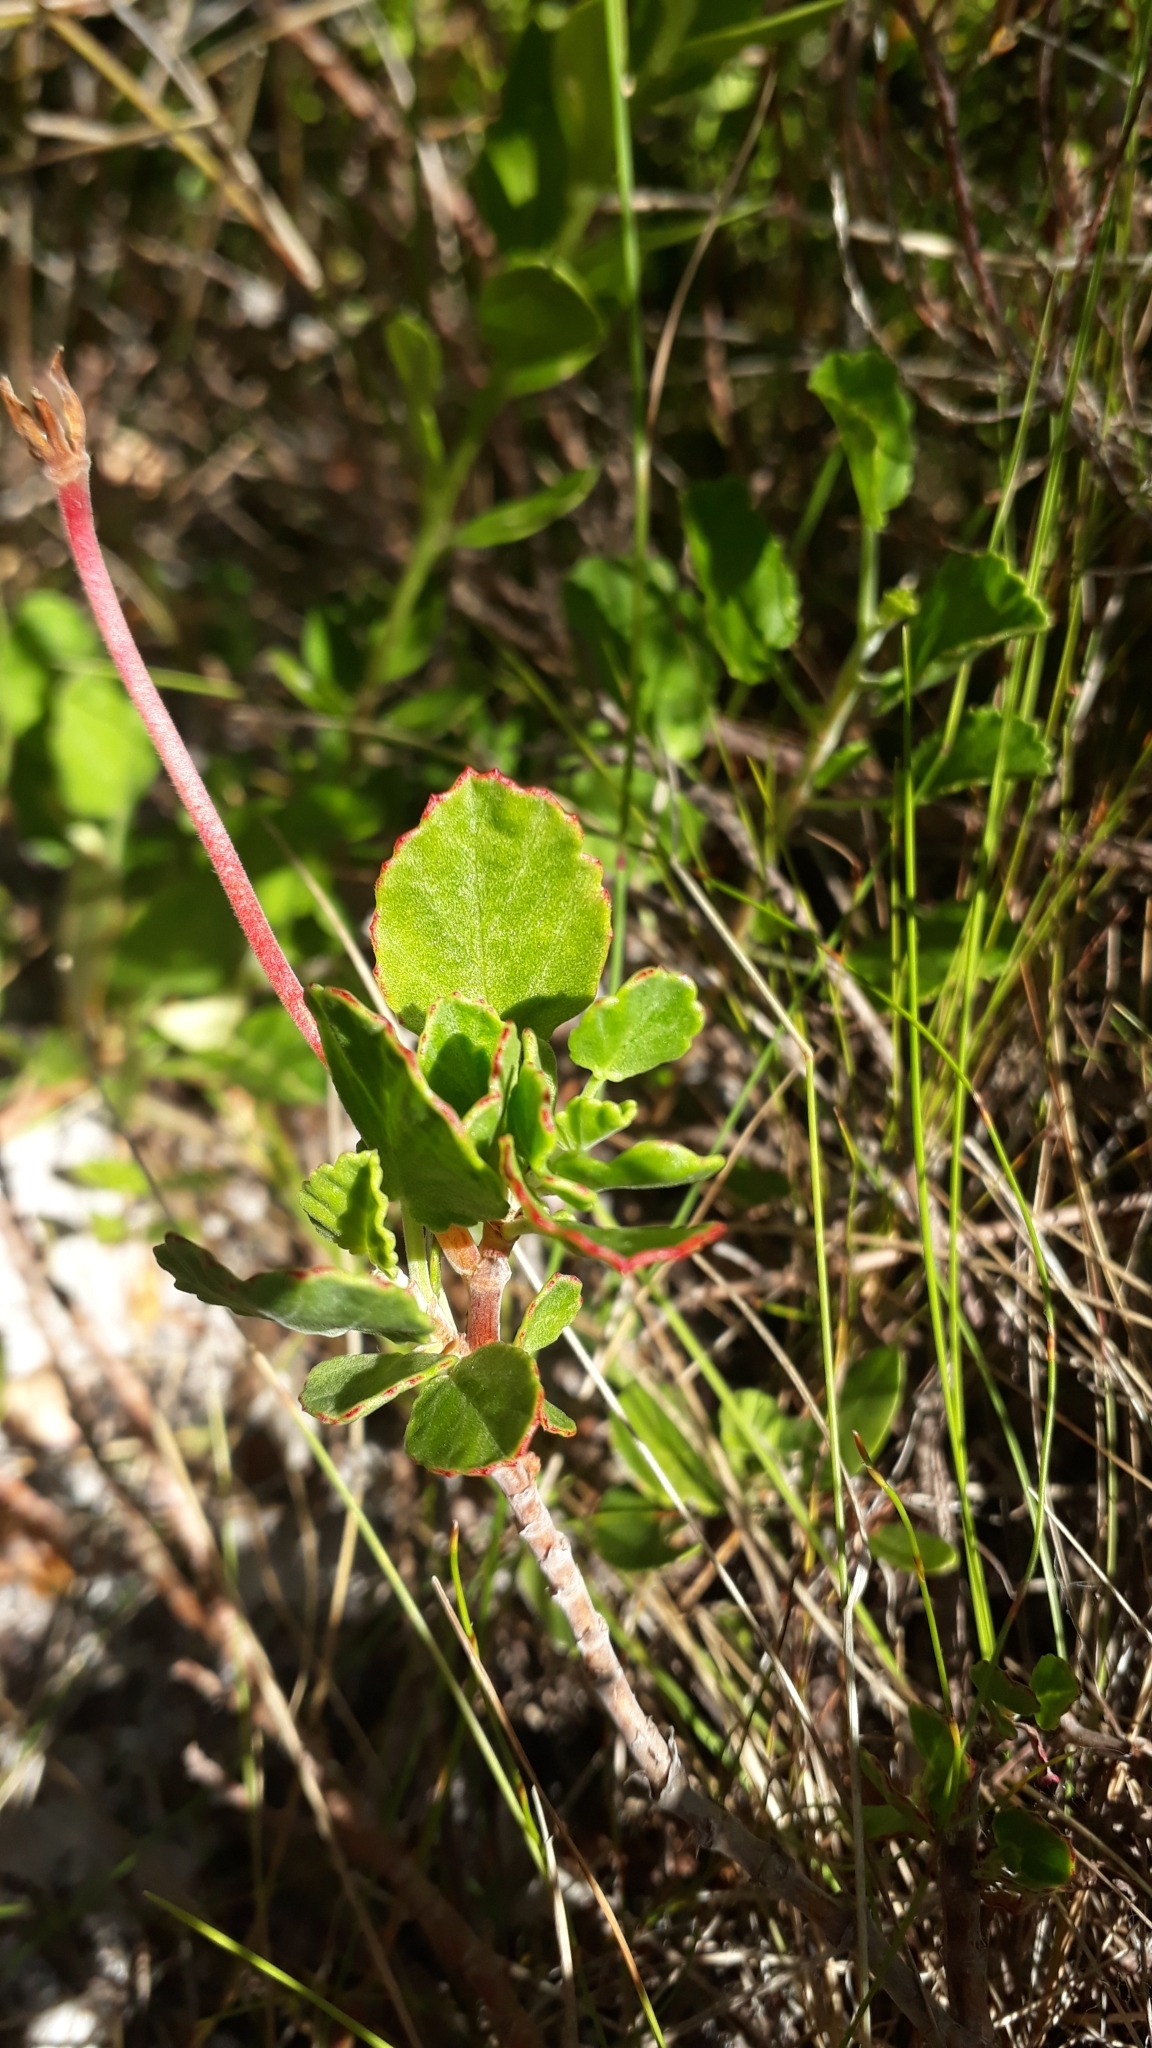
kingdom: Plantae
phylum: Tracheophyta
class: Magnoliopsida
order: Geraniales
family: Geraniaceae
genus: Pelargonium
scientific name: Pelargonium betulinum
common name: Birch-leaf pelargonium
